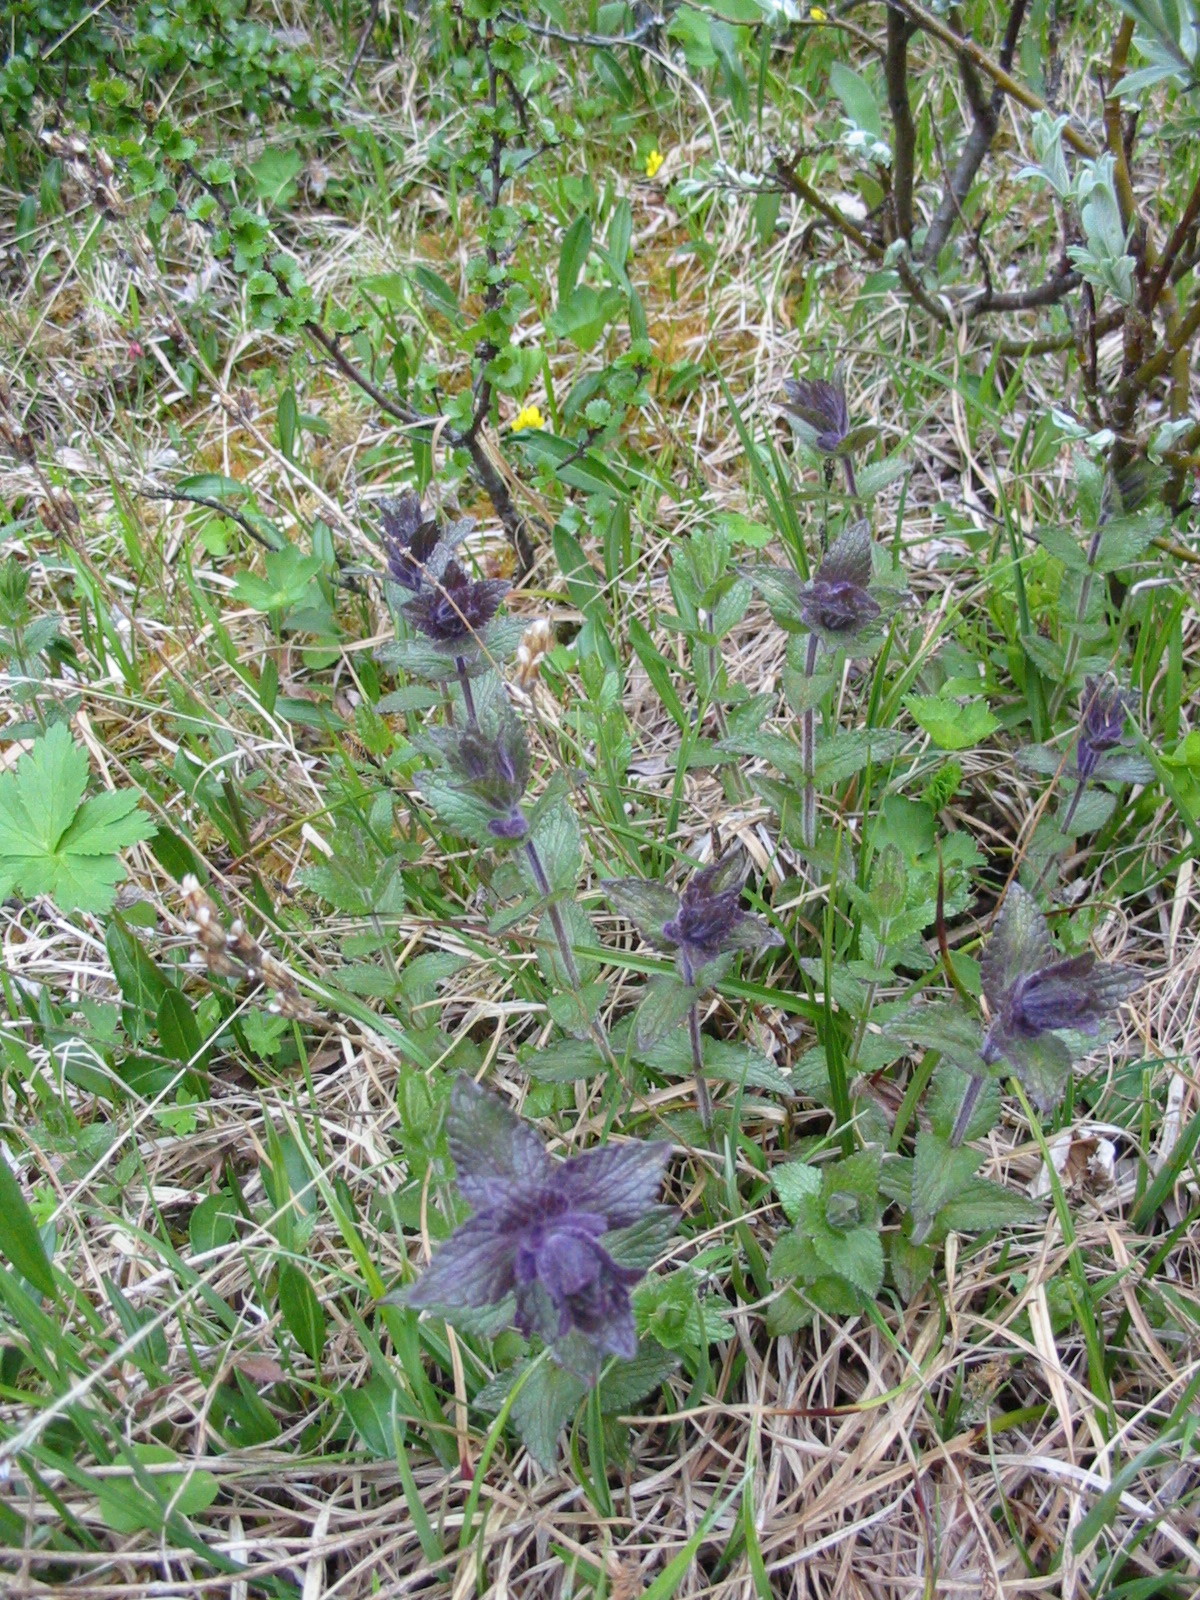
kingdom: Plantae
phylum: Tracheophyta
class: Magnoliopsida
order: Lamiales
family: Orobanchaceae
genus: Bartsia
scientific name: Bartsia alpina
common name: Alpine bartsia
